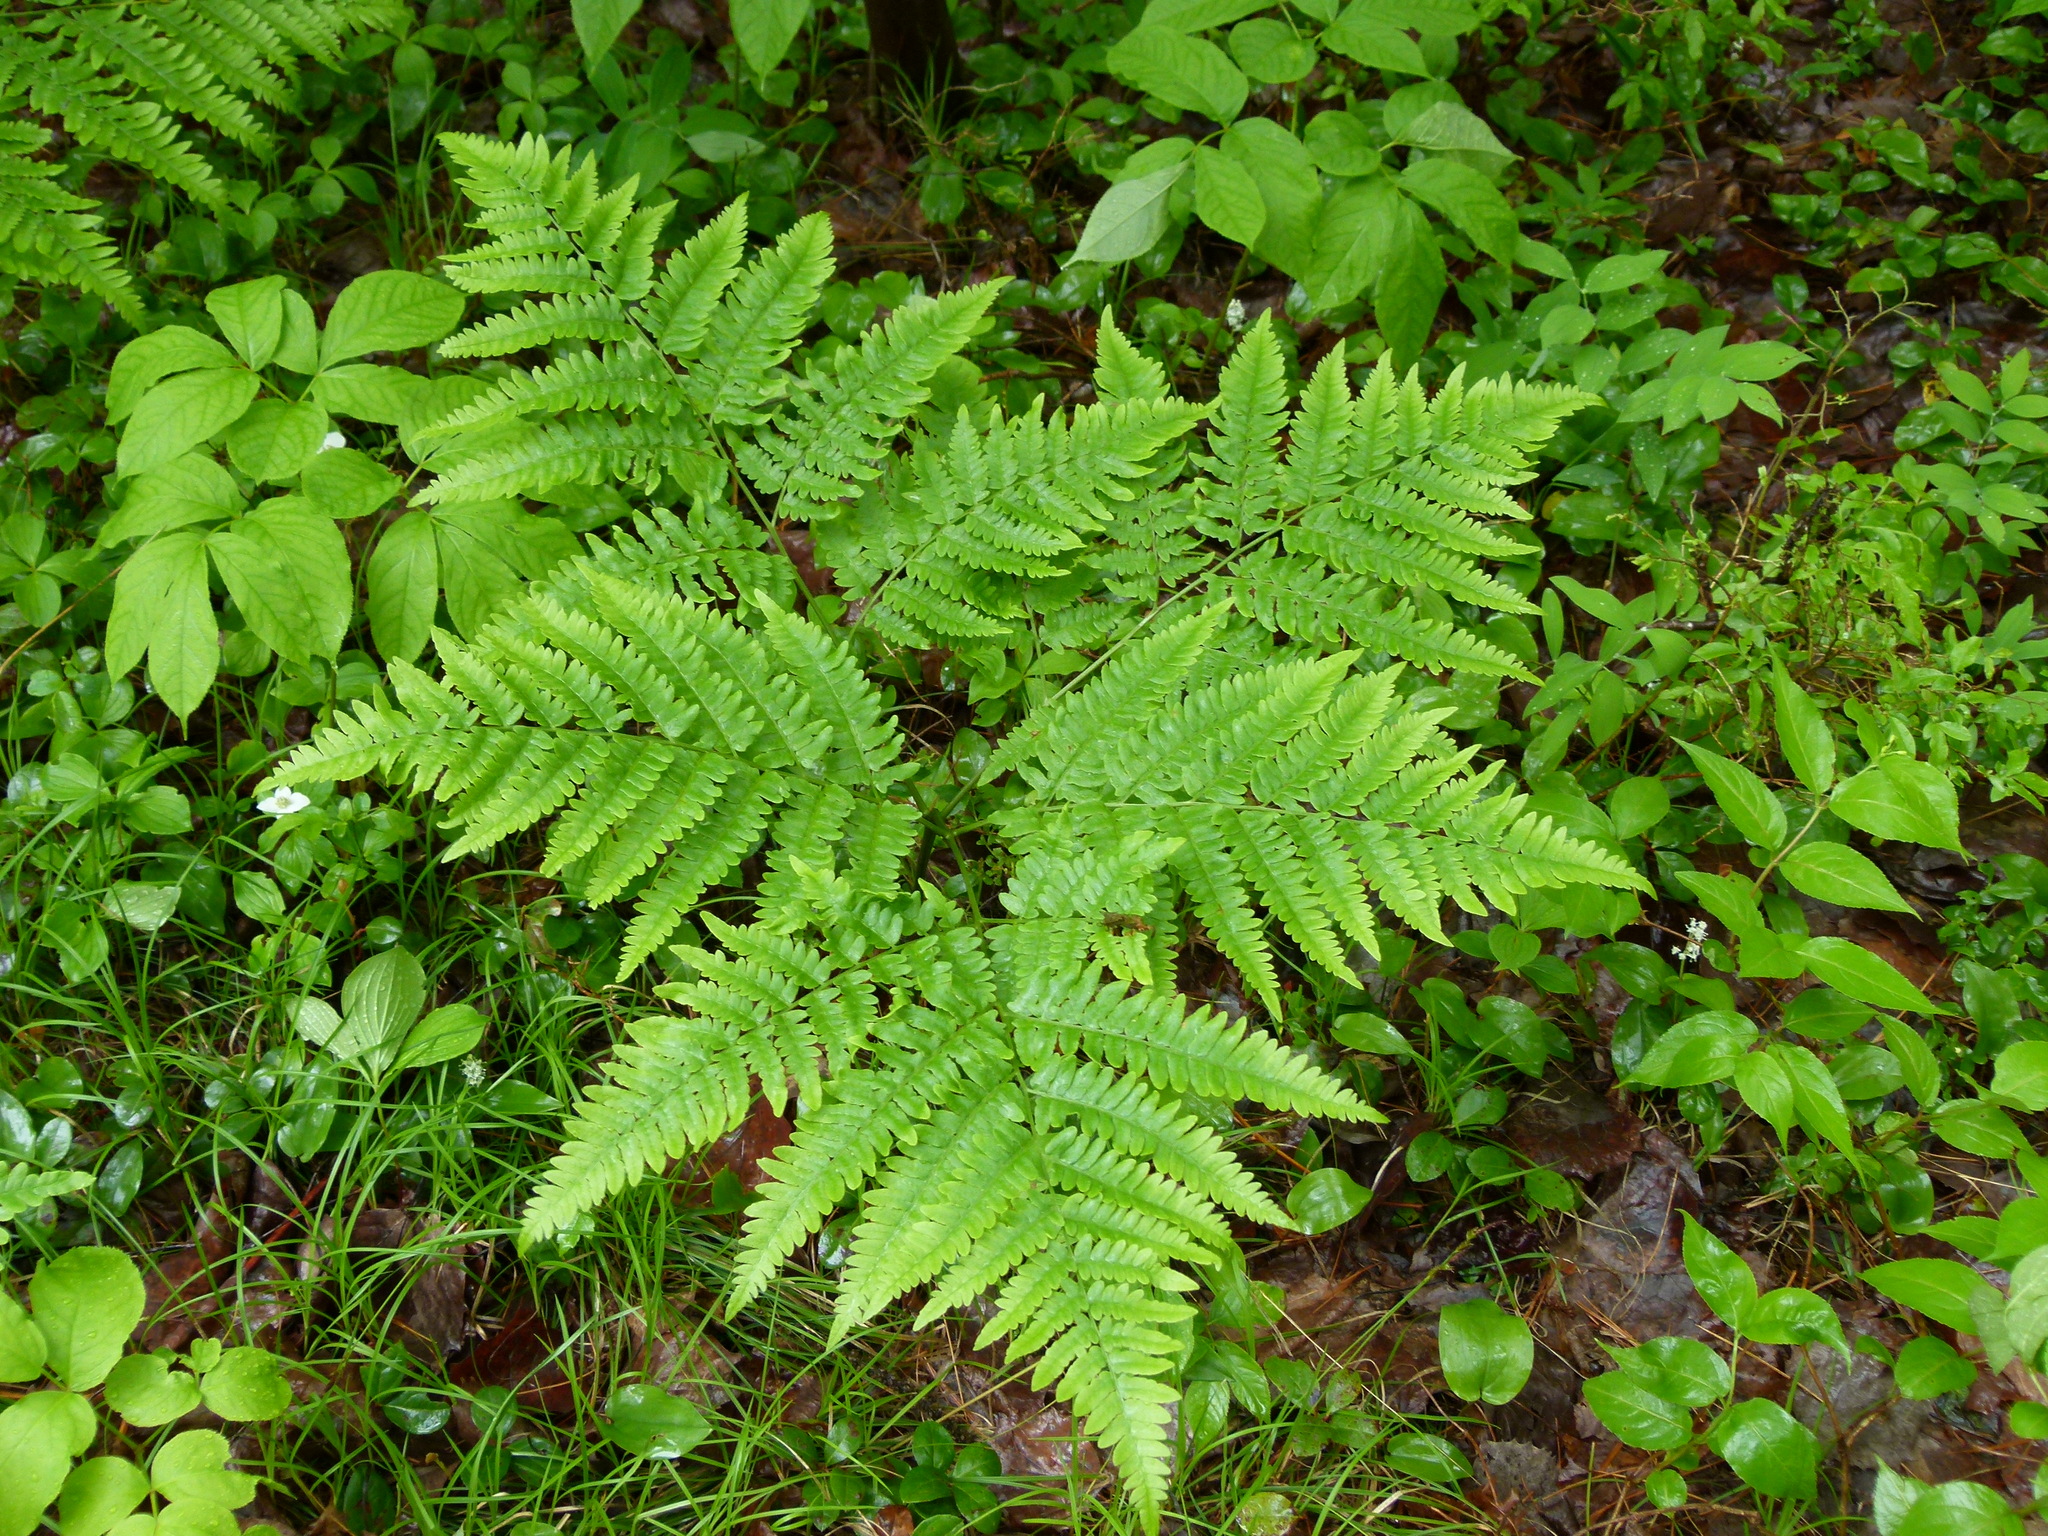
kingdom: Plantae
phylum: Tracheophyta
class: Polypodiopsida
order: Polypodiales
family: Dennstaedtiaceae
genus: Pteridium
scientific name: Pteridium aquilinum
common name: Bracken
